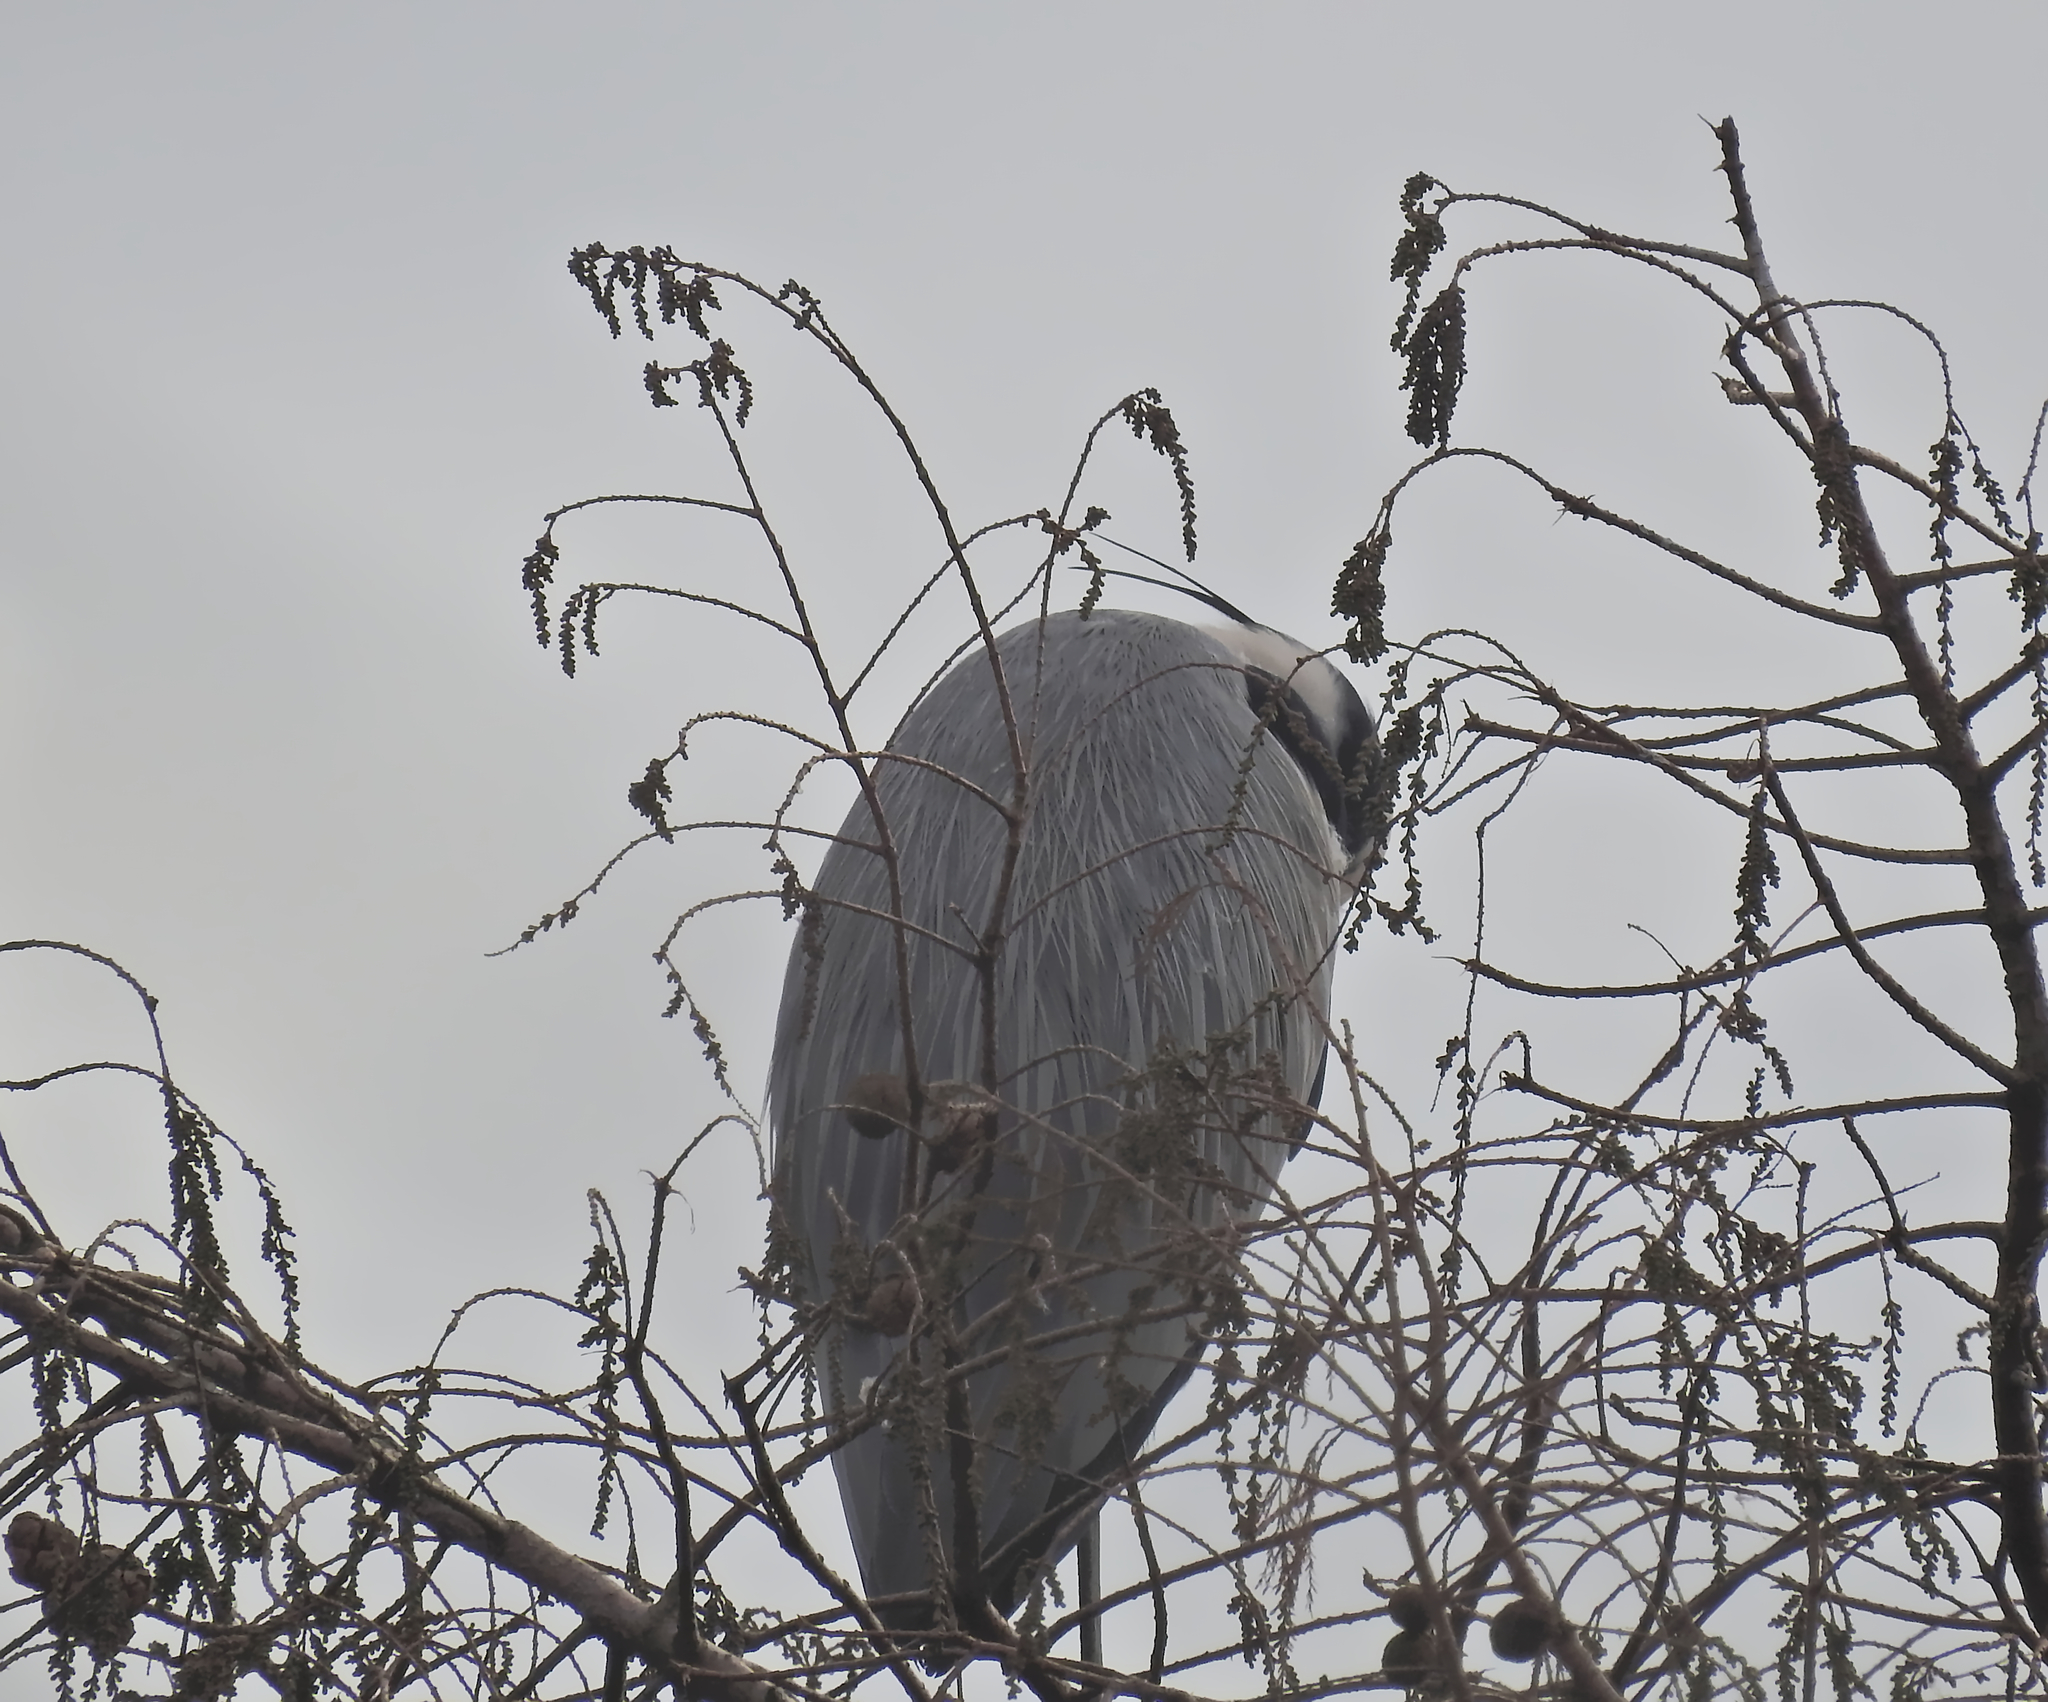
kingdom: Animalia
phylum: Chordata
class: Aves
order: Pelecaniformes
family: Ardeidae
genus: Ardea
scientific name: Ardea cinerea
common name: Grey heron
